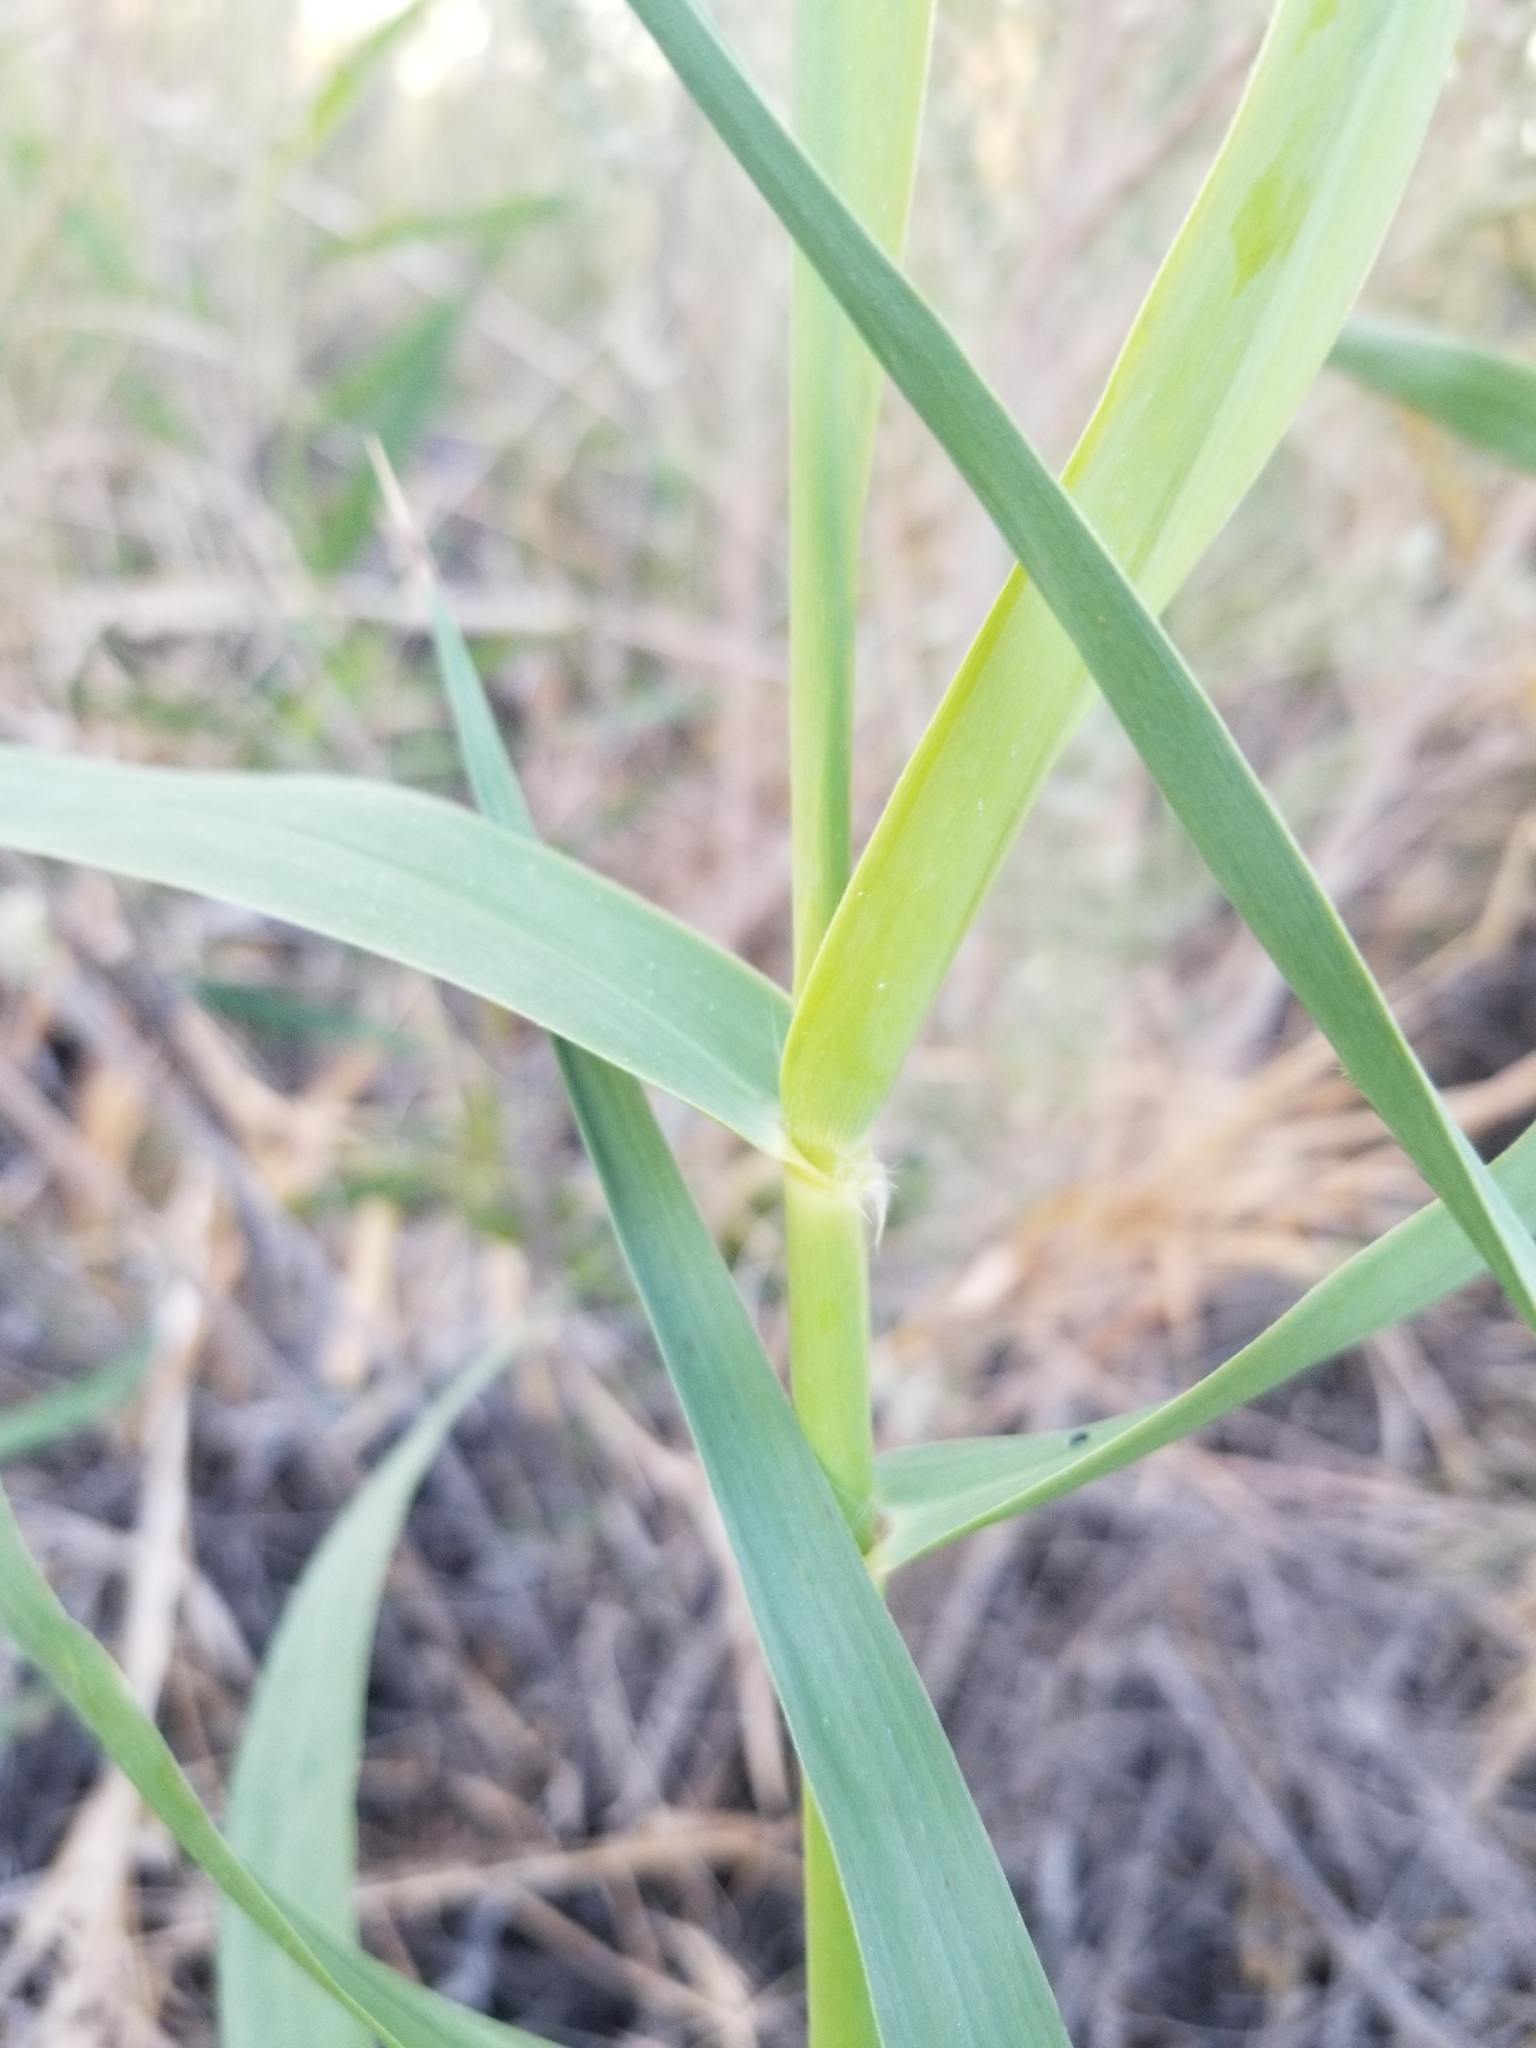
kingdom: Plantae
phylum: Tracheophyta
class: Liliopsida
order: Poales
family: Poaceae
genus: Phragmites
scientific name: Phragmites australis
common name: Common reed
